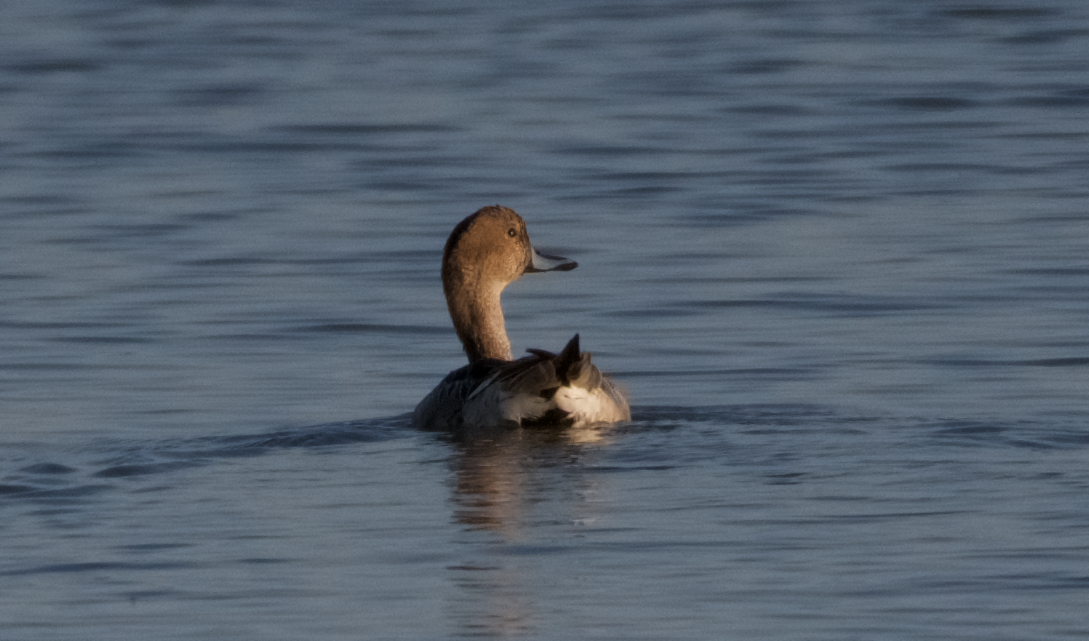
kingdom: Animalia
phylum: Chordata
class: Aves
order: Anseriformes
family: Anatidae
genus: Anas
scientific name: Anas acuta
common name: Northern pintail
